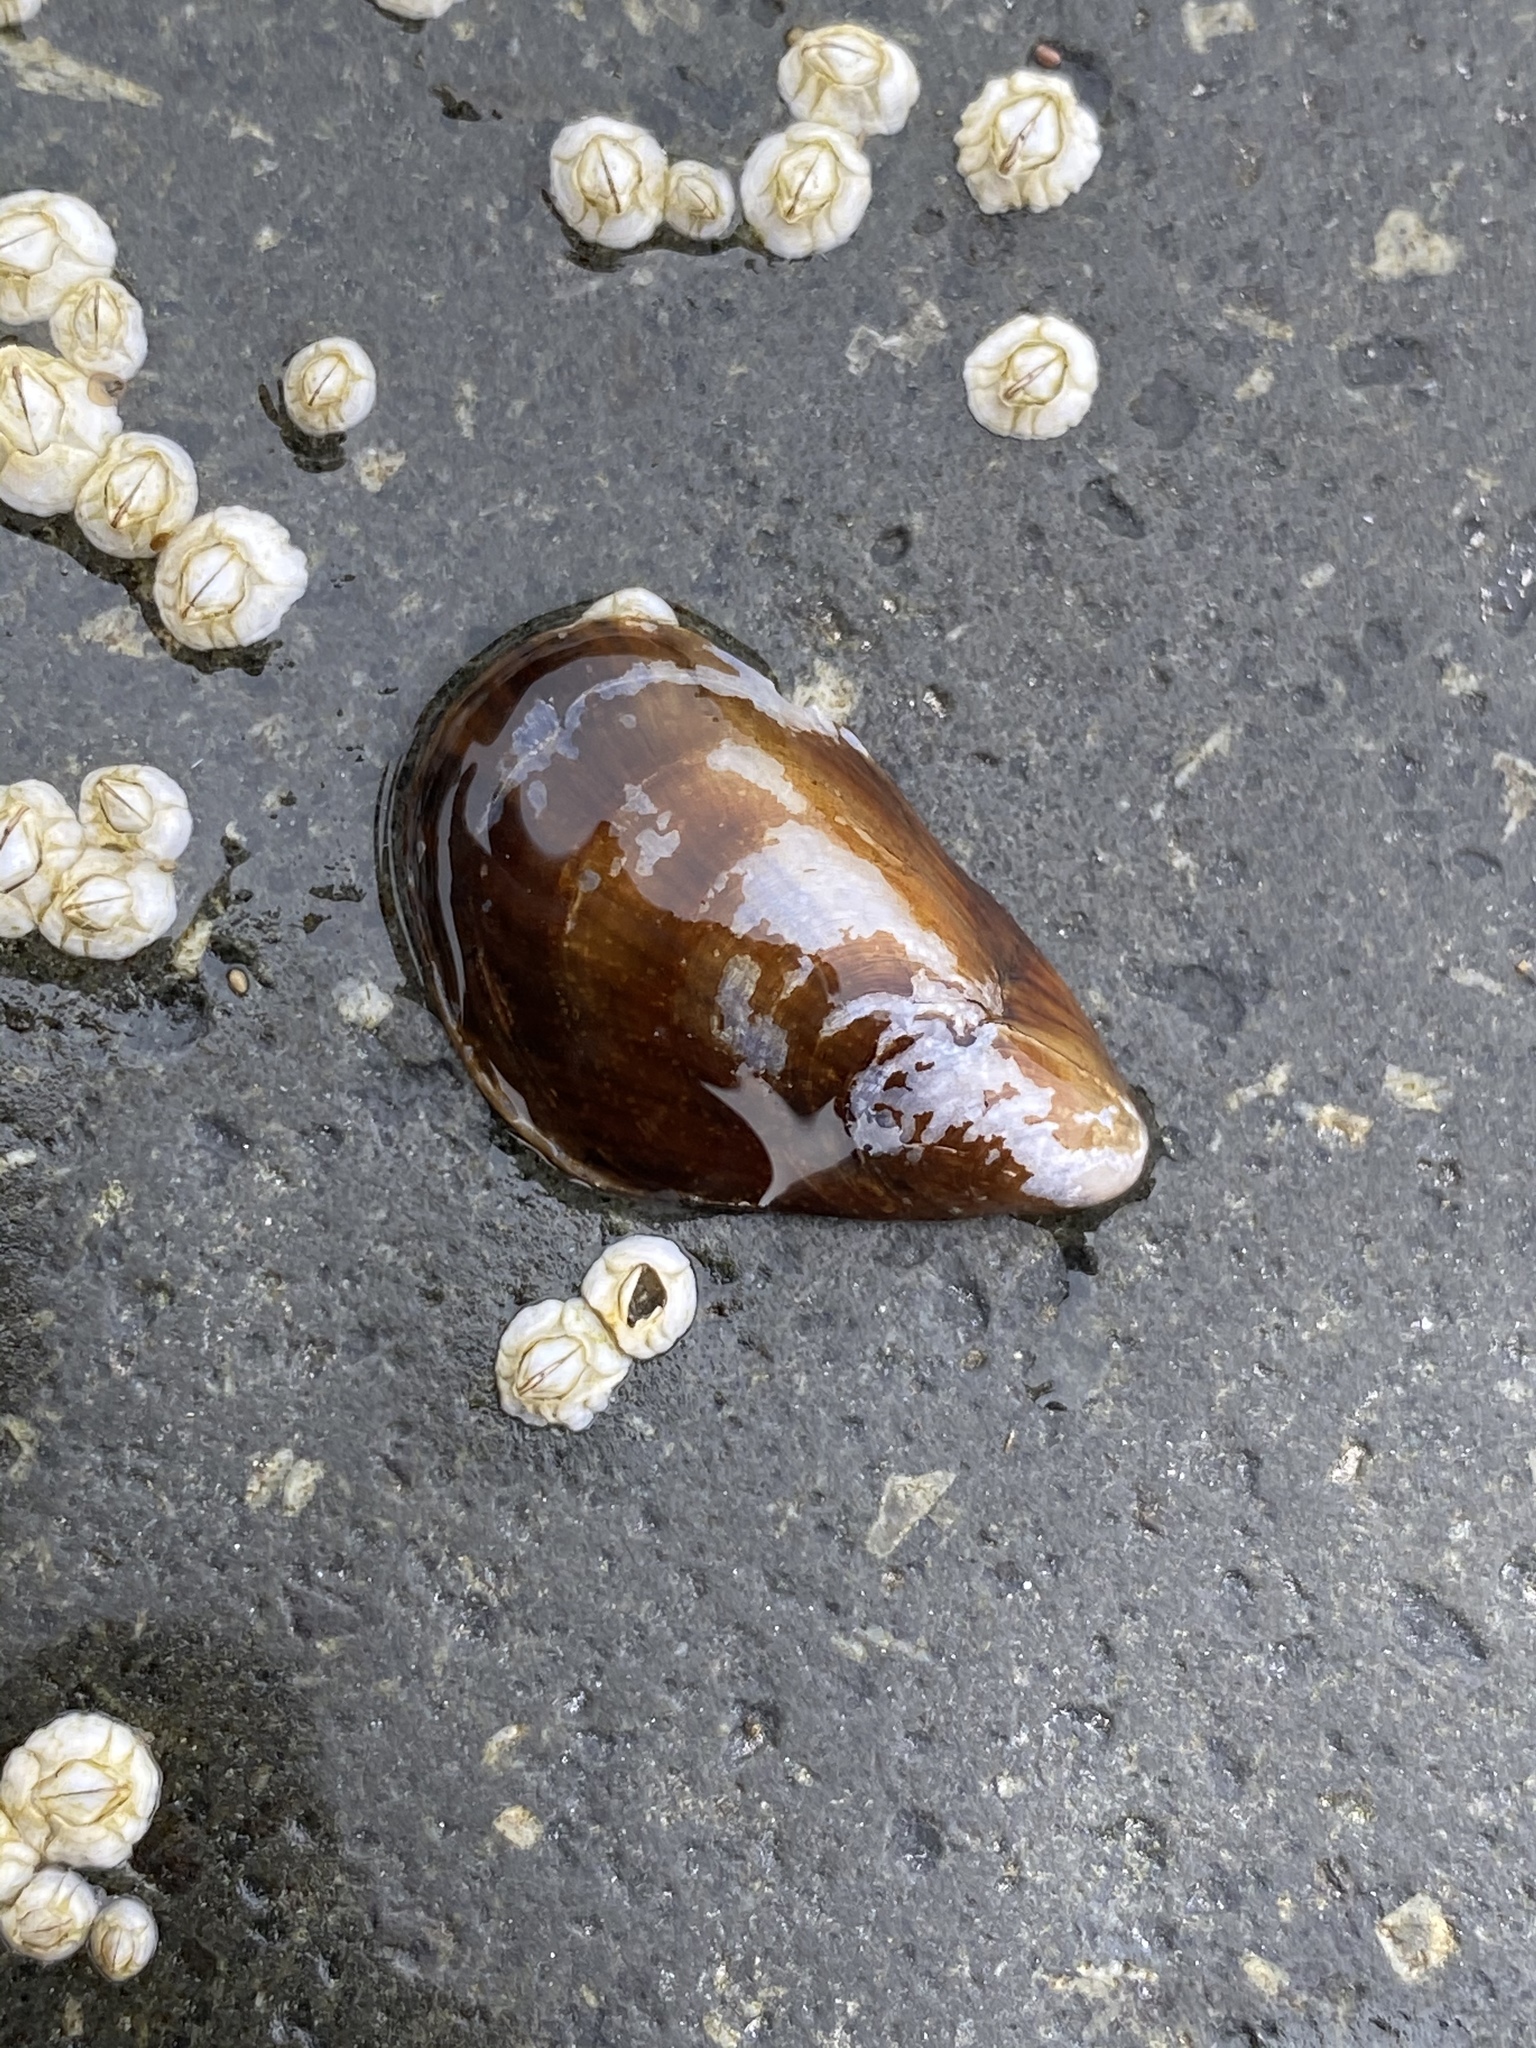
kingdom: Animalia
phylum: Mollusca
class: Bivalvia
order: Mytilida
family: Mytilidae
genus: Mytilus
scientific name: Mytilus edulis
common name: Blue mussel
